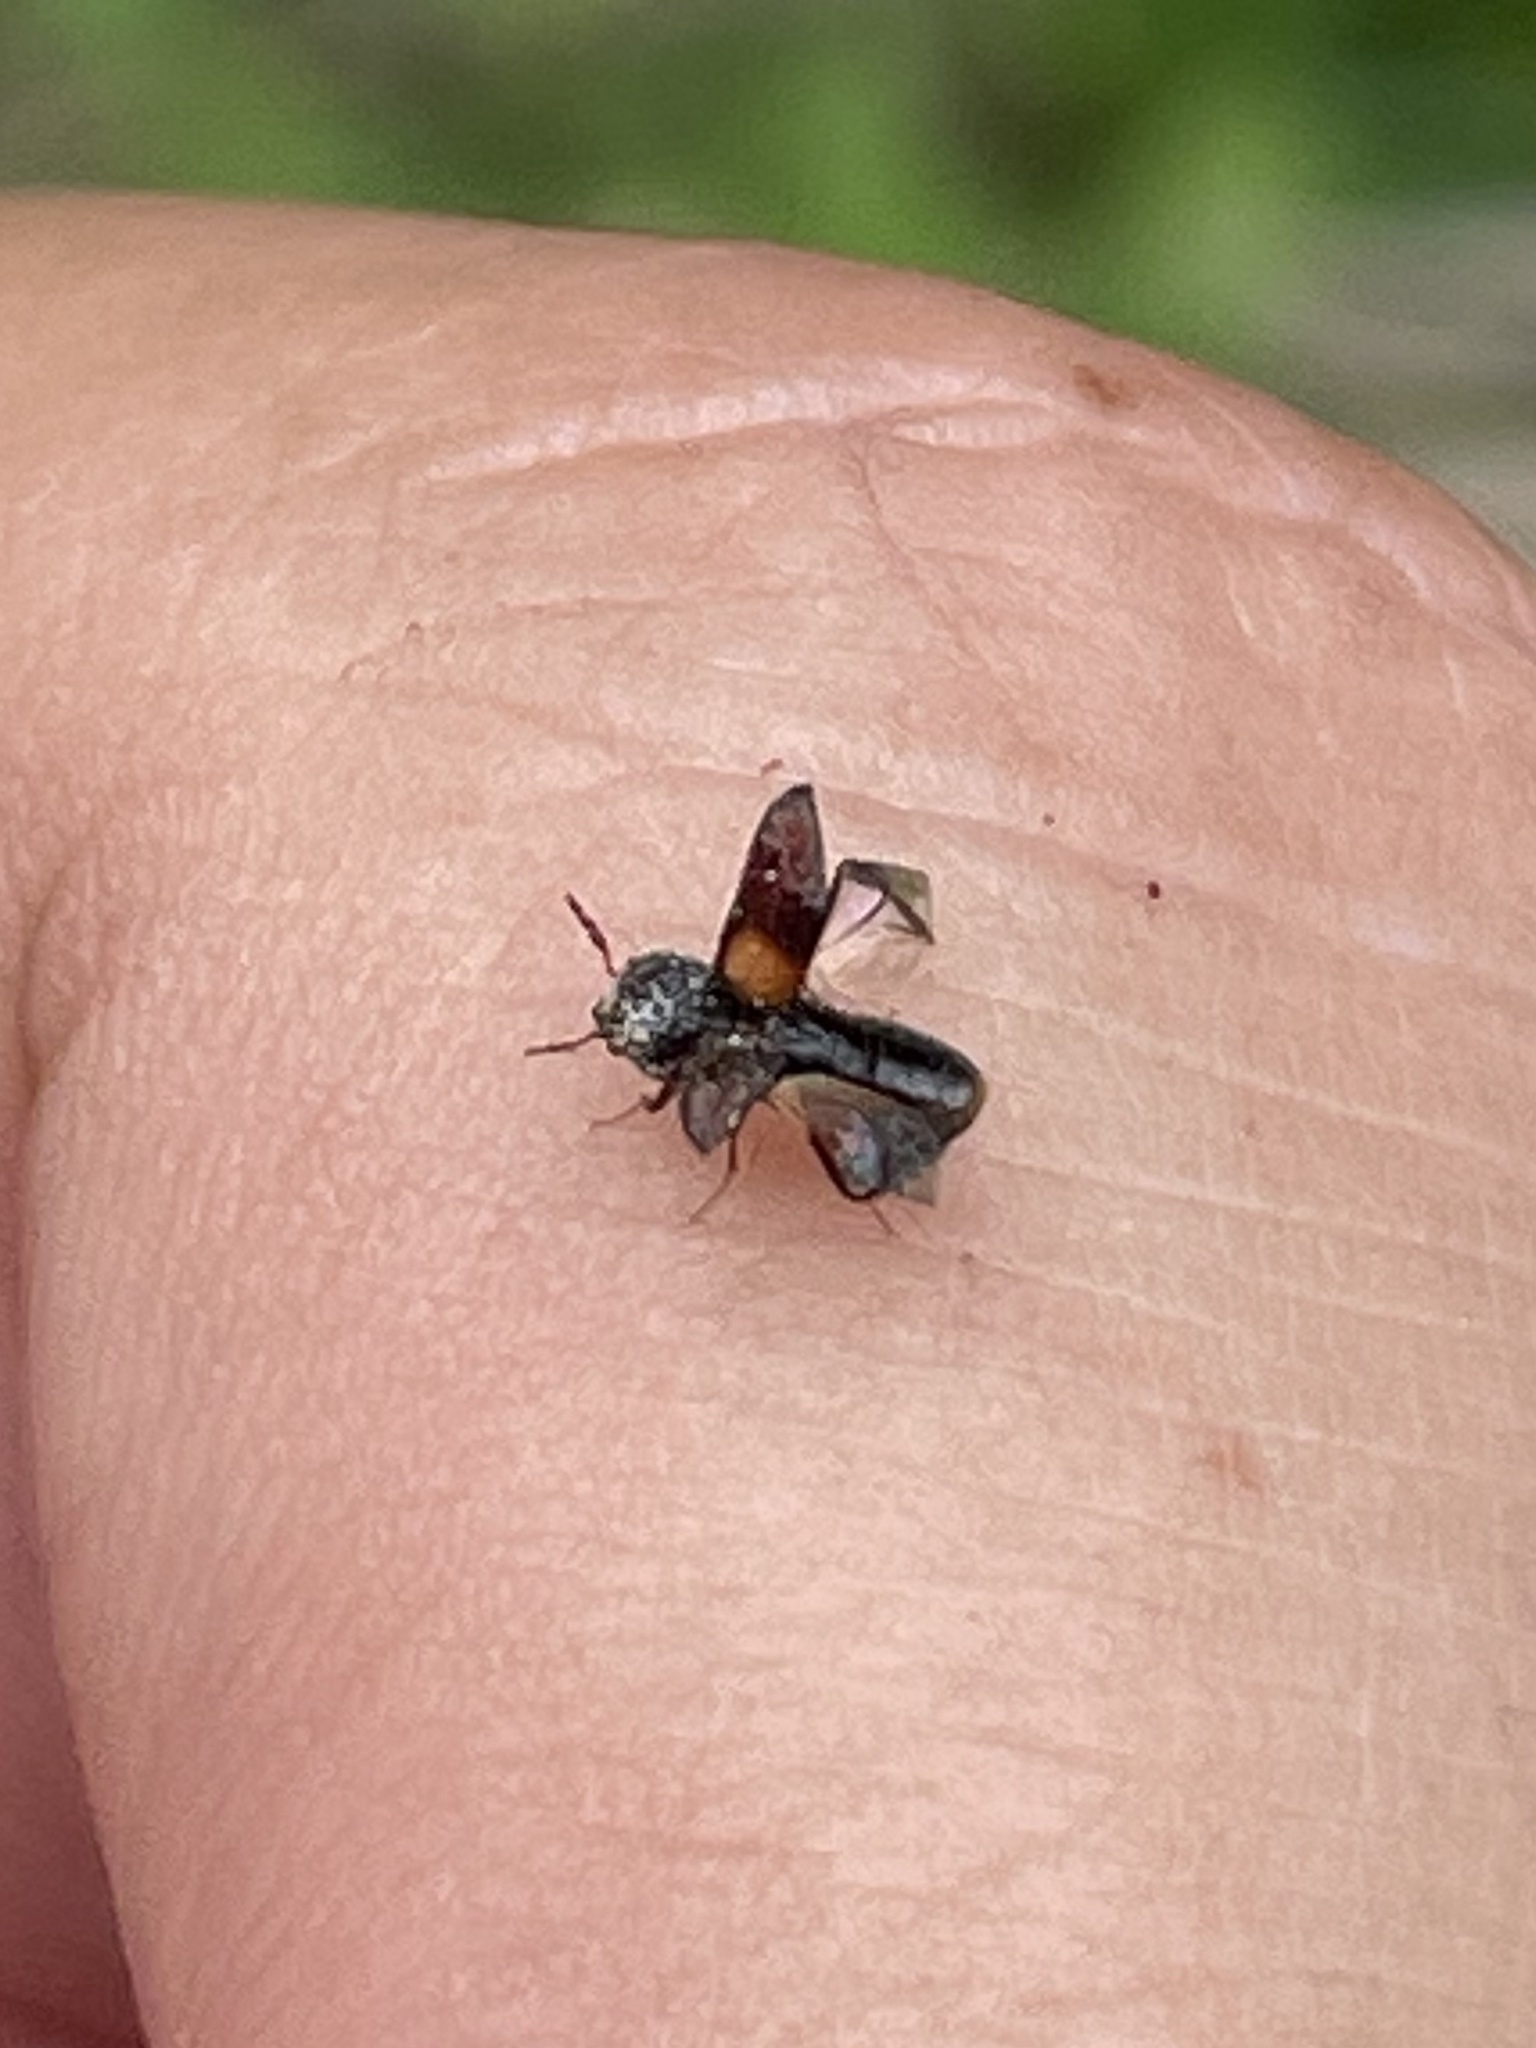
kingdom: Animalia
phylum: Arthropoda
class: Insecta
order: Coleoptera
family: Bostrichidae
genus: Xylobiops
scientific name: Xylobiops basilaris
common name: Red-shouldered bostrichid
